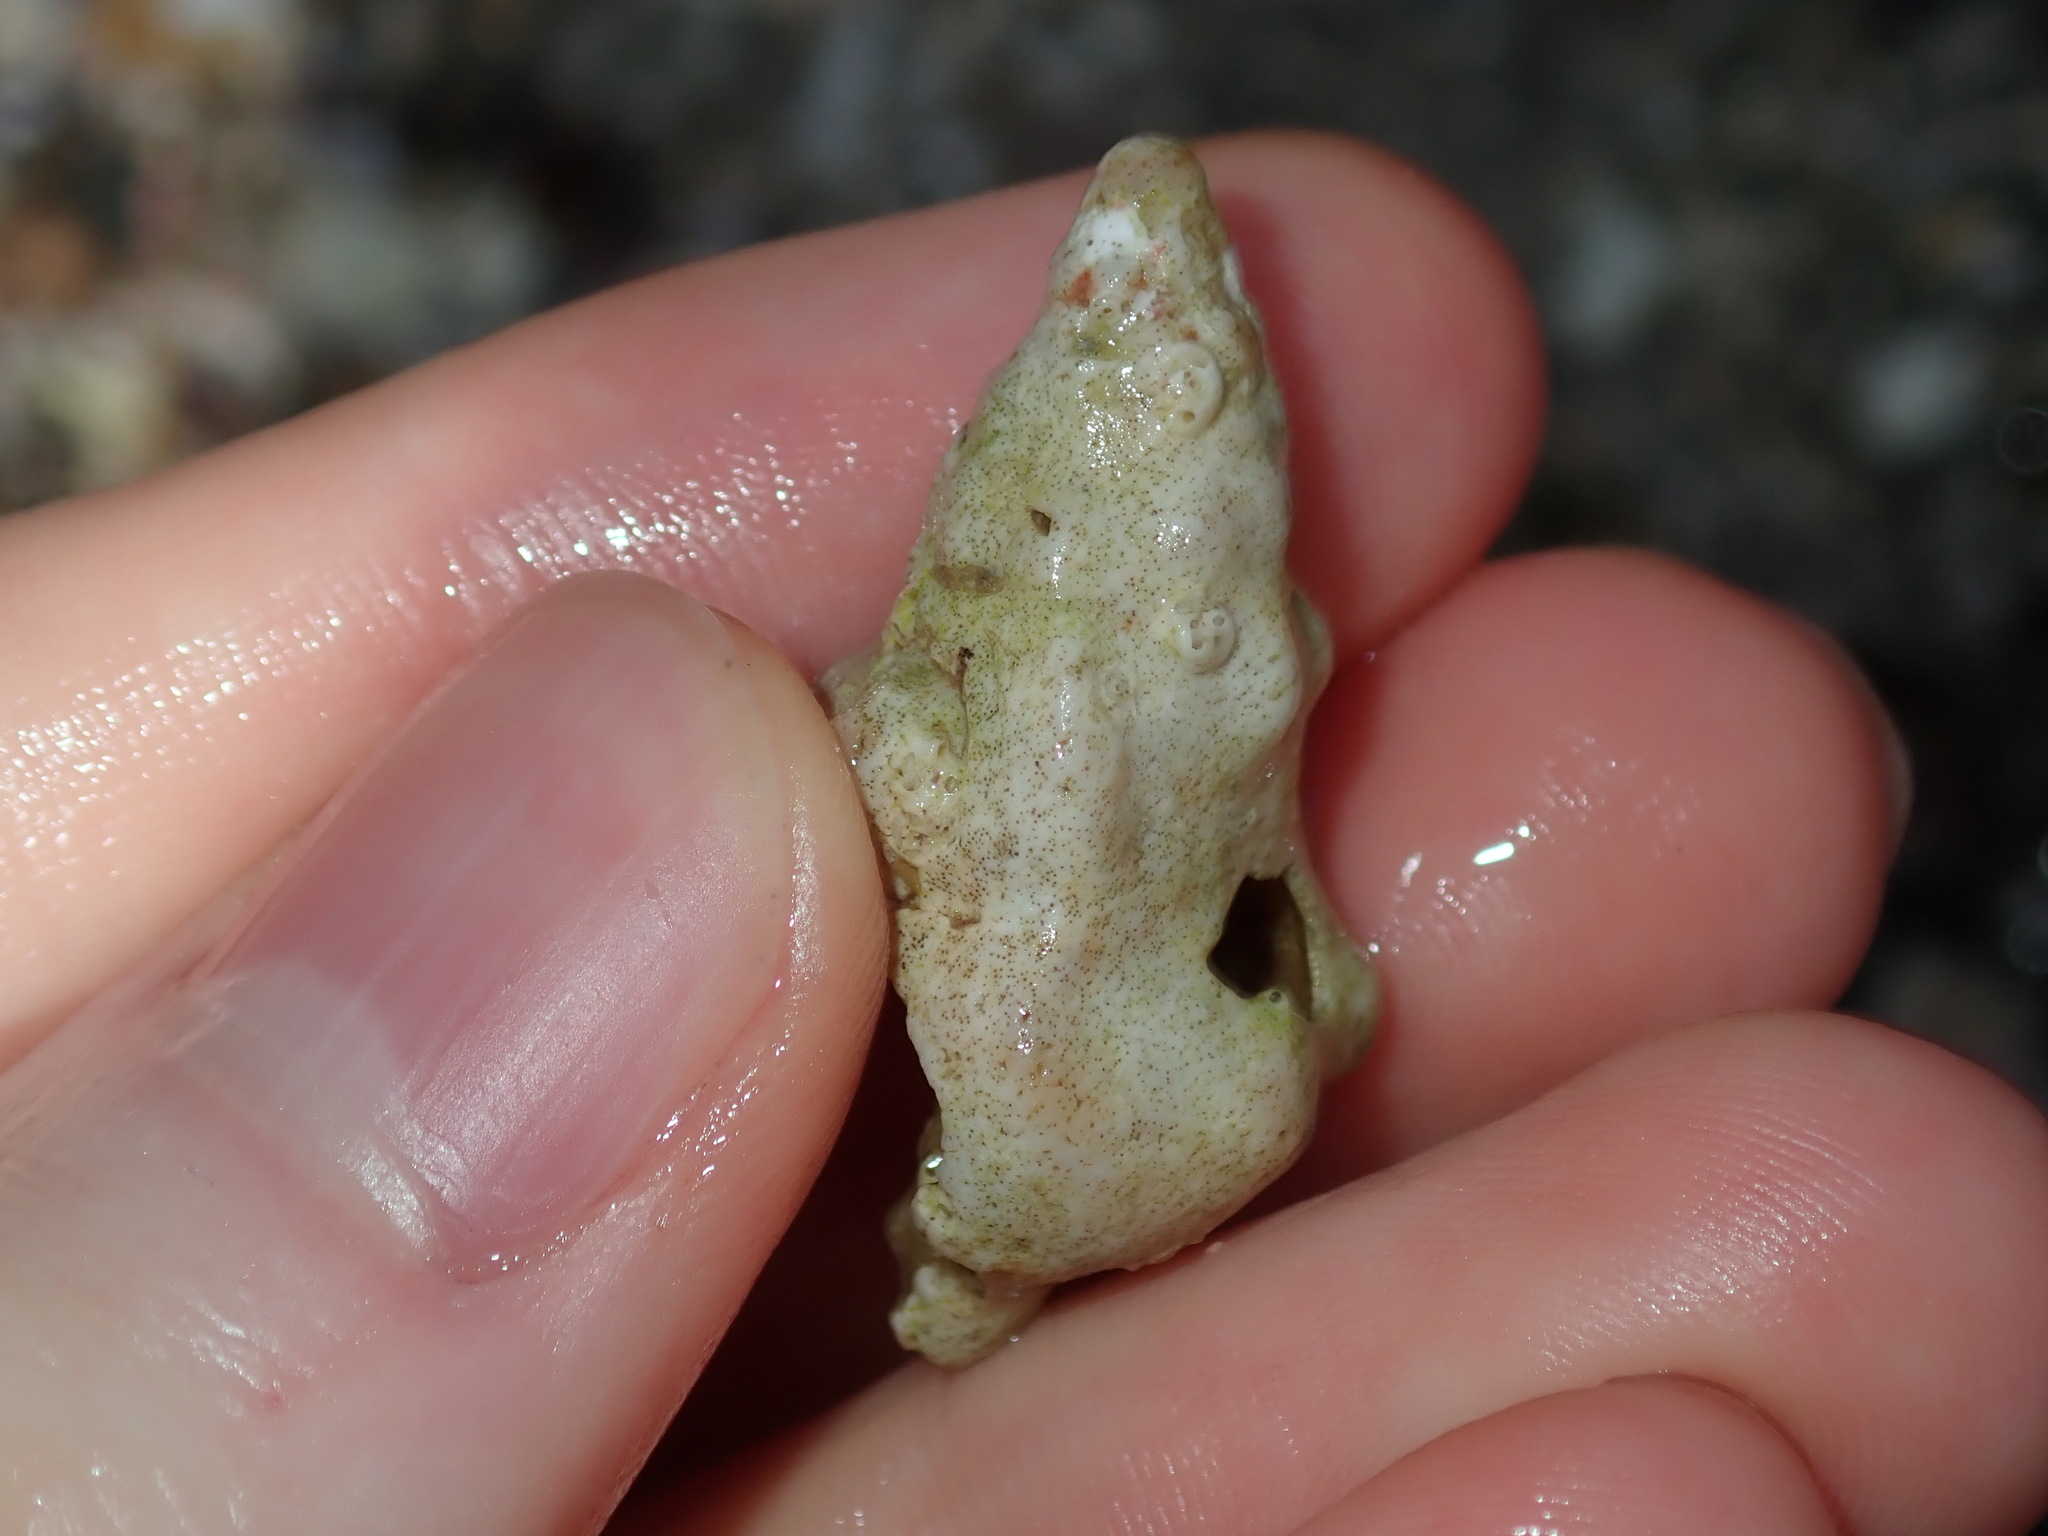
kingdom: Animalia
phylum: Mollusca
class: Gastropoda
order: Littorinimorpha
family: Cymatiidae
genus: Austrosassia
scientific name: Austrosassia parkinsonia
